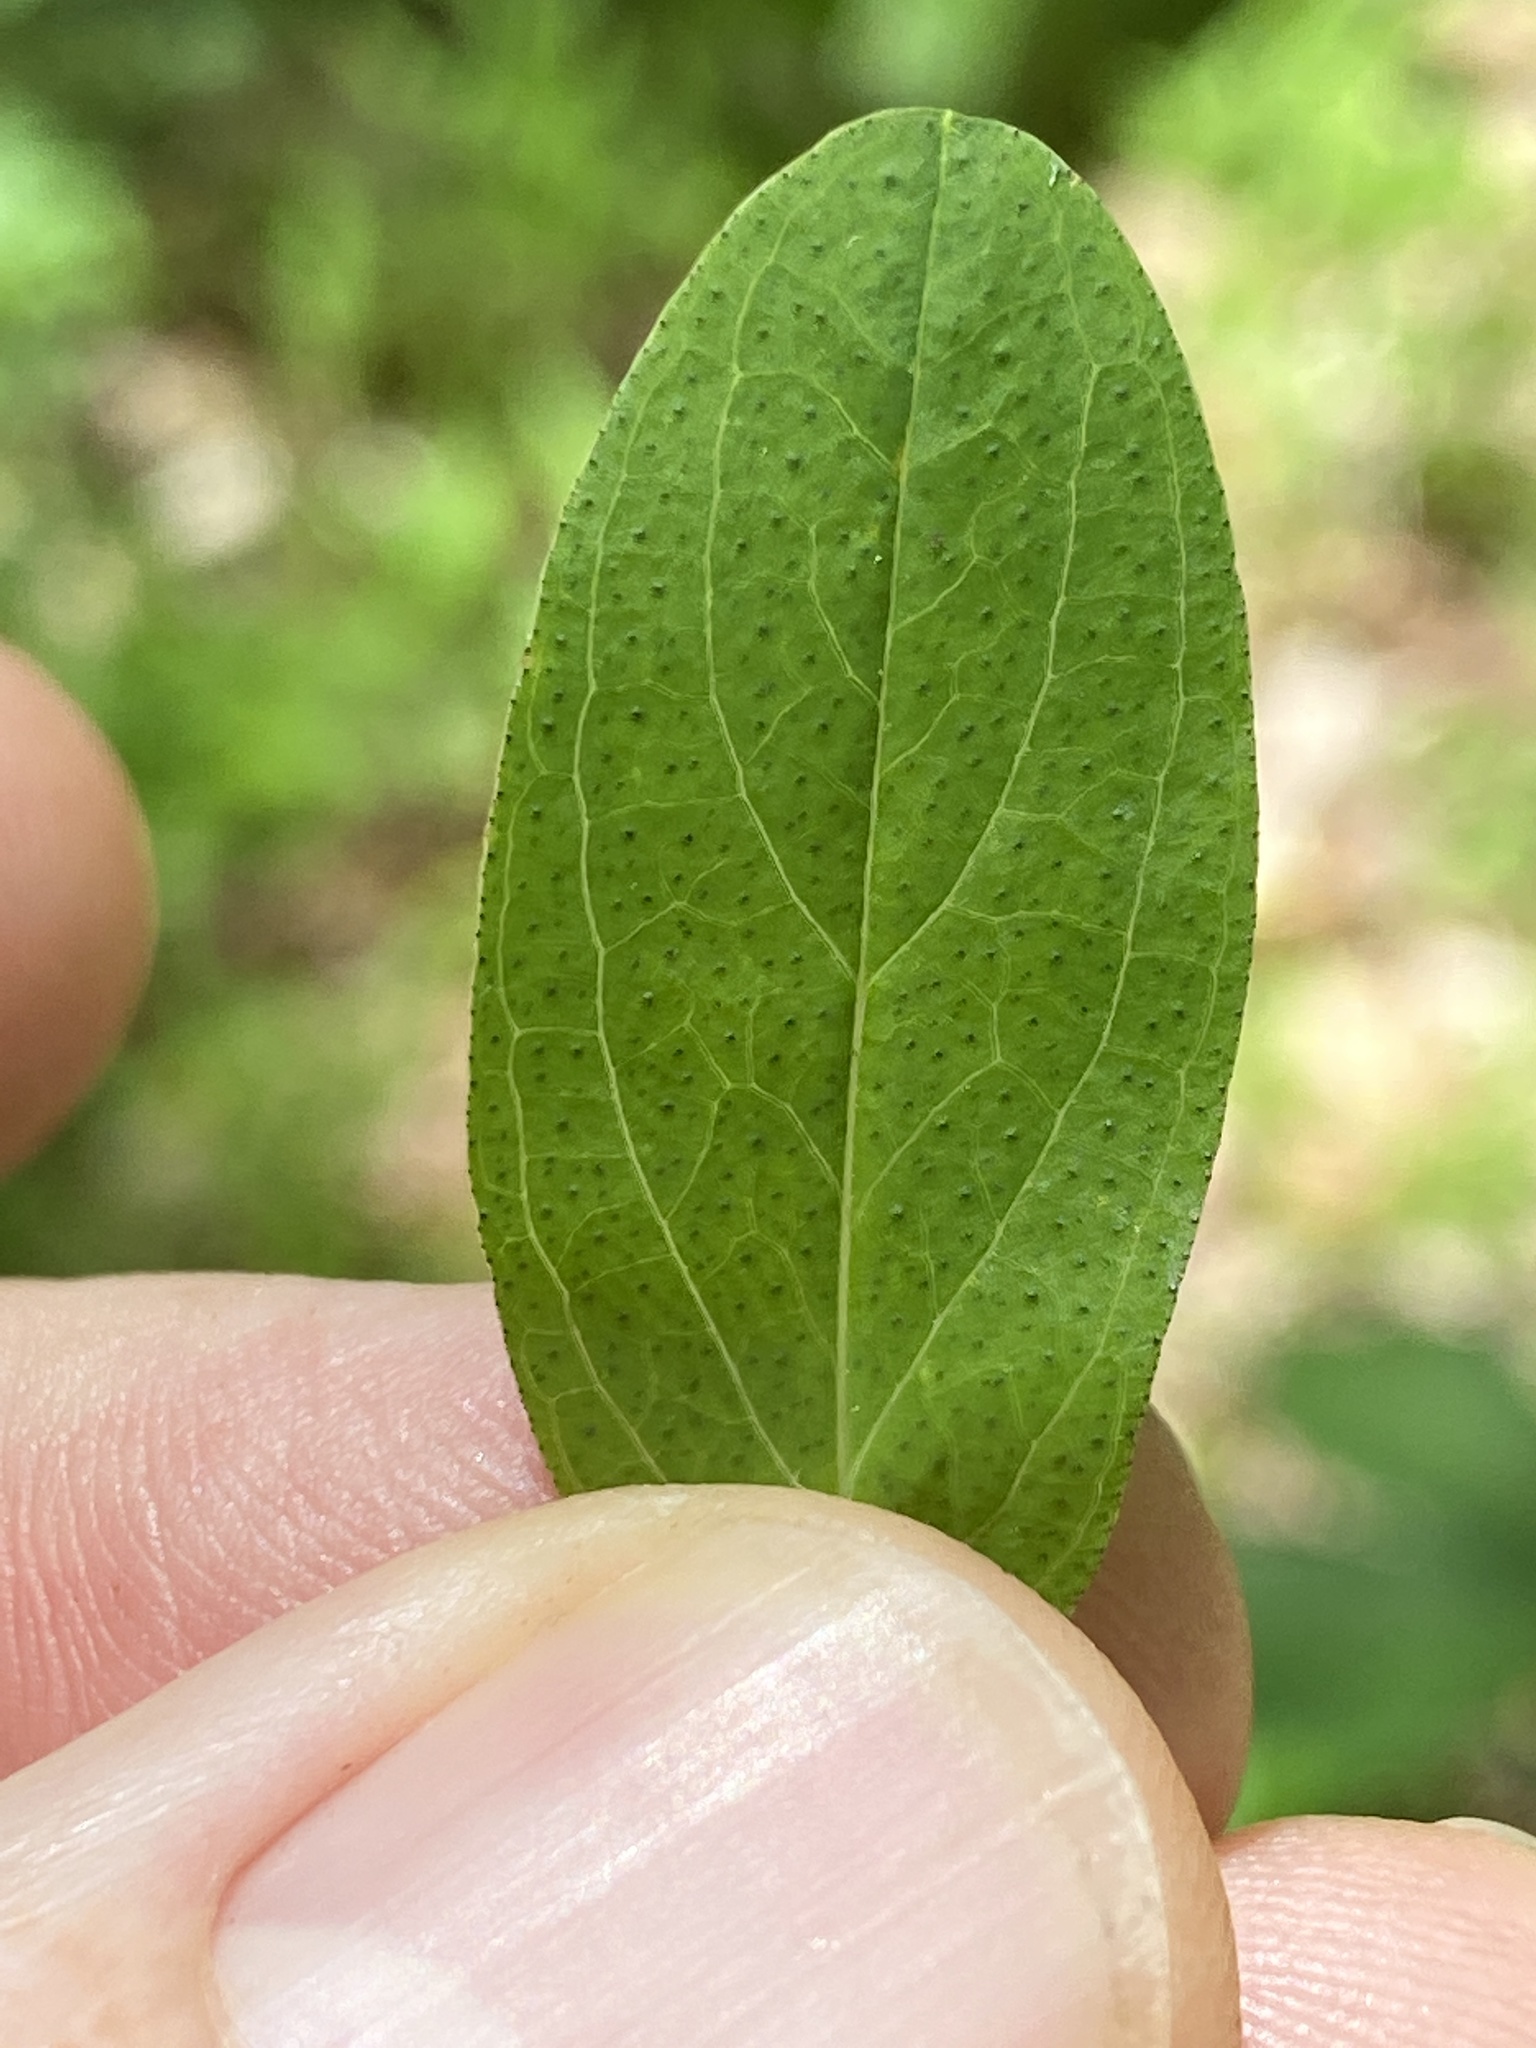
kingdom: Plantae
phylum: Tracheophyta
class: Magnoliopsida
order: Malpighiales
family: Hypericaceae
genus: Hypericum
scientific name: Hypericum punctatum
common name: Spotted st. john's-wort
